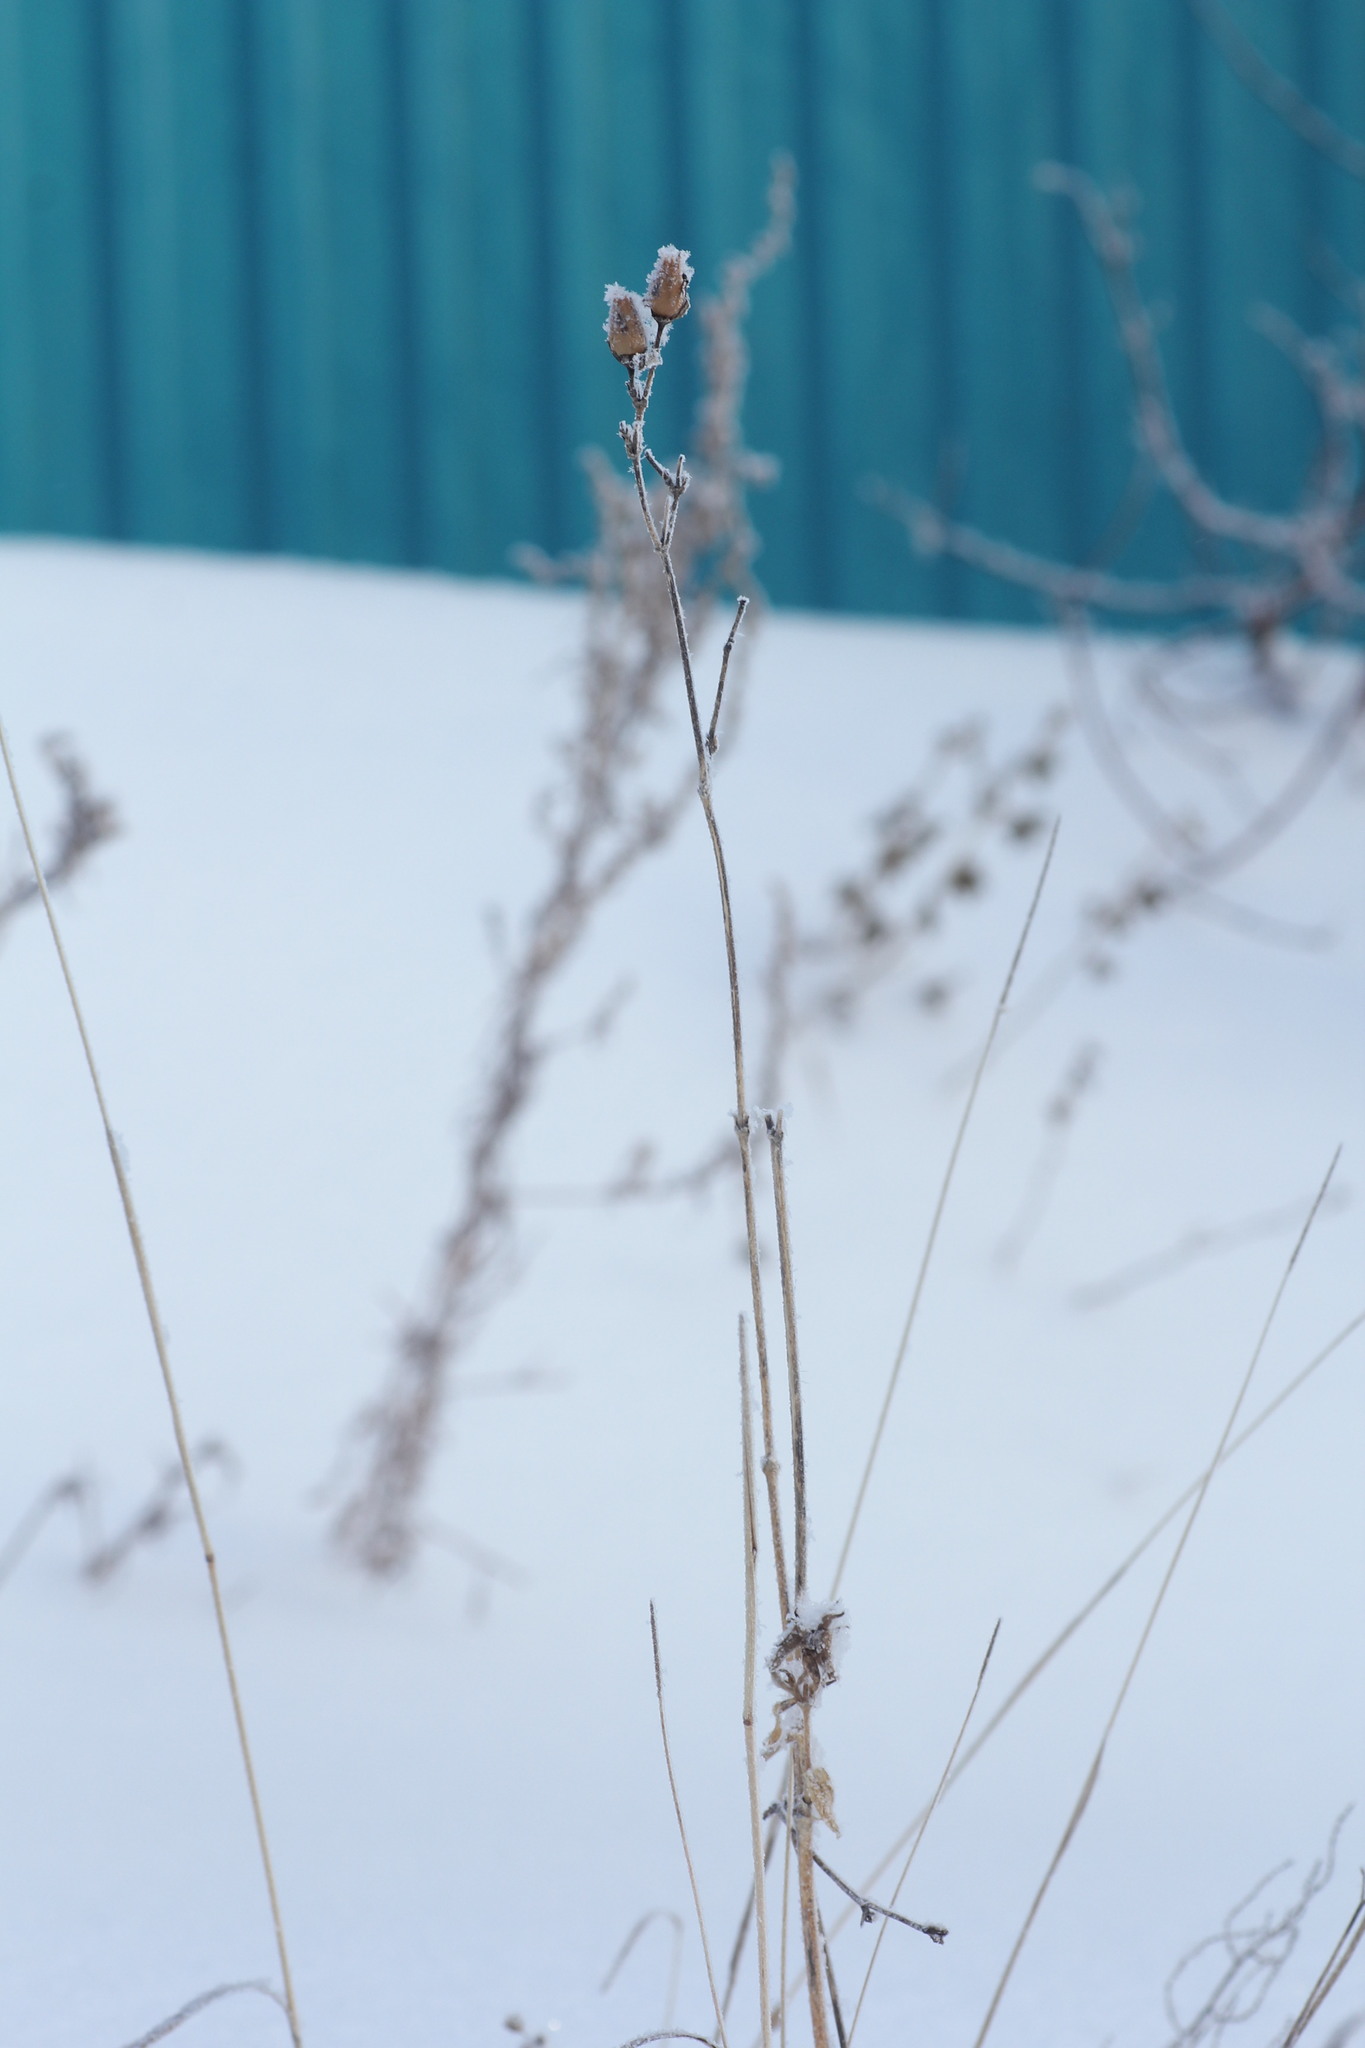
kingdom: Plantae
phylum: Tracheophyta
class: Magnoliopsida
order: Caryophyllales
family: Caryophyllaceae
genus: Silene
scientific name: Silene latifolia
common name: White campion
